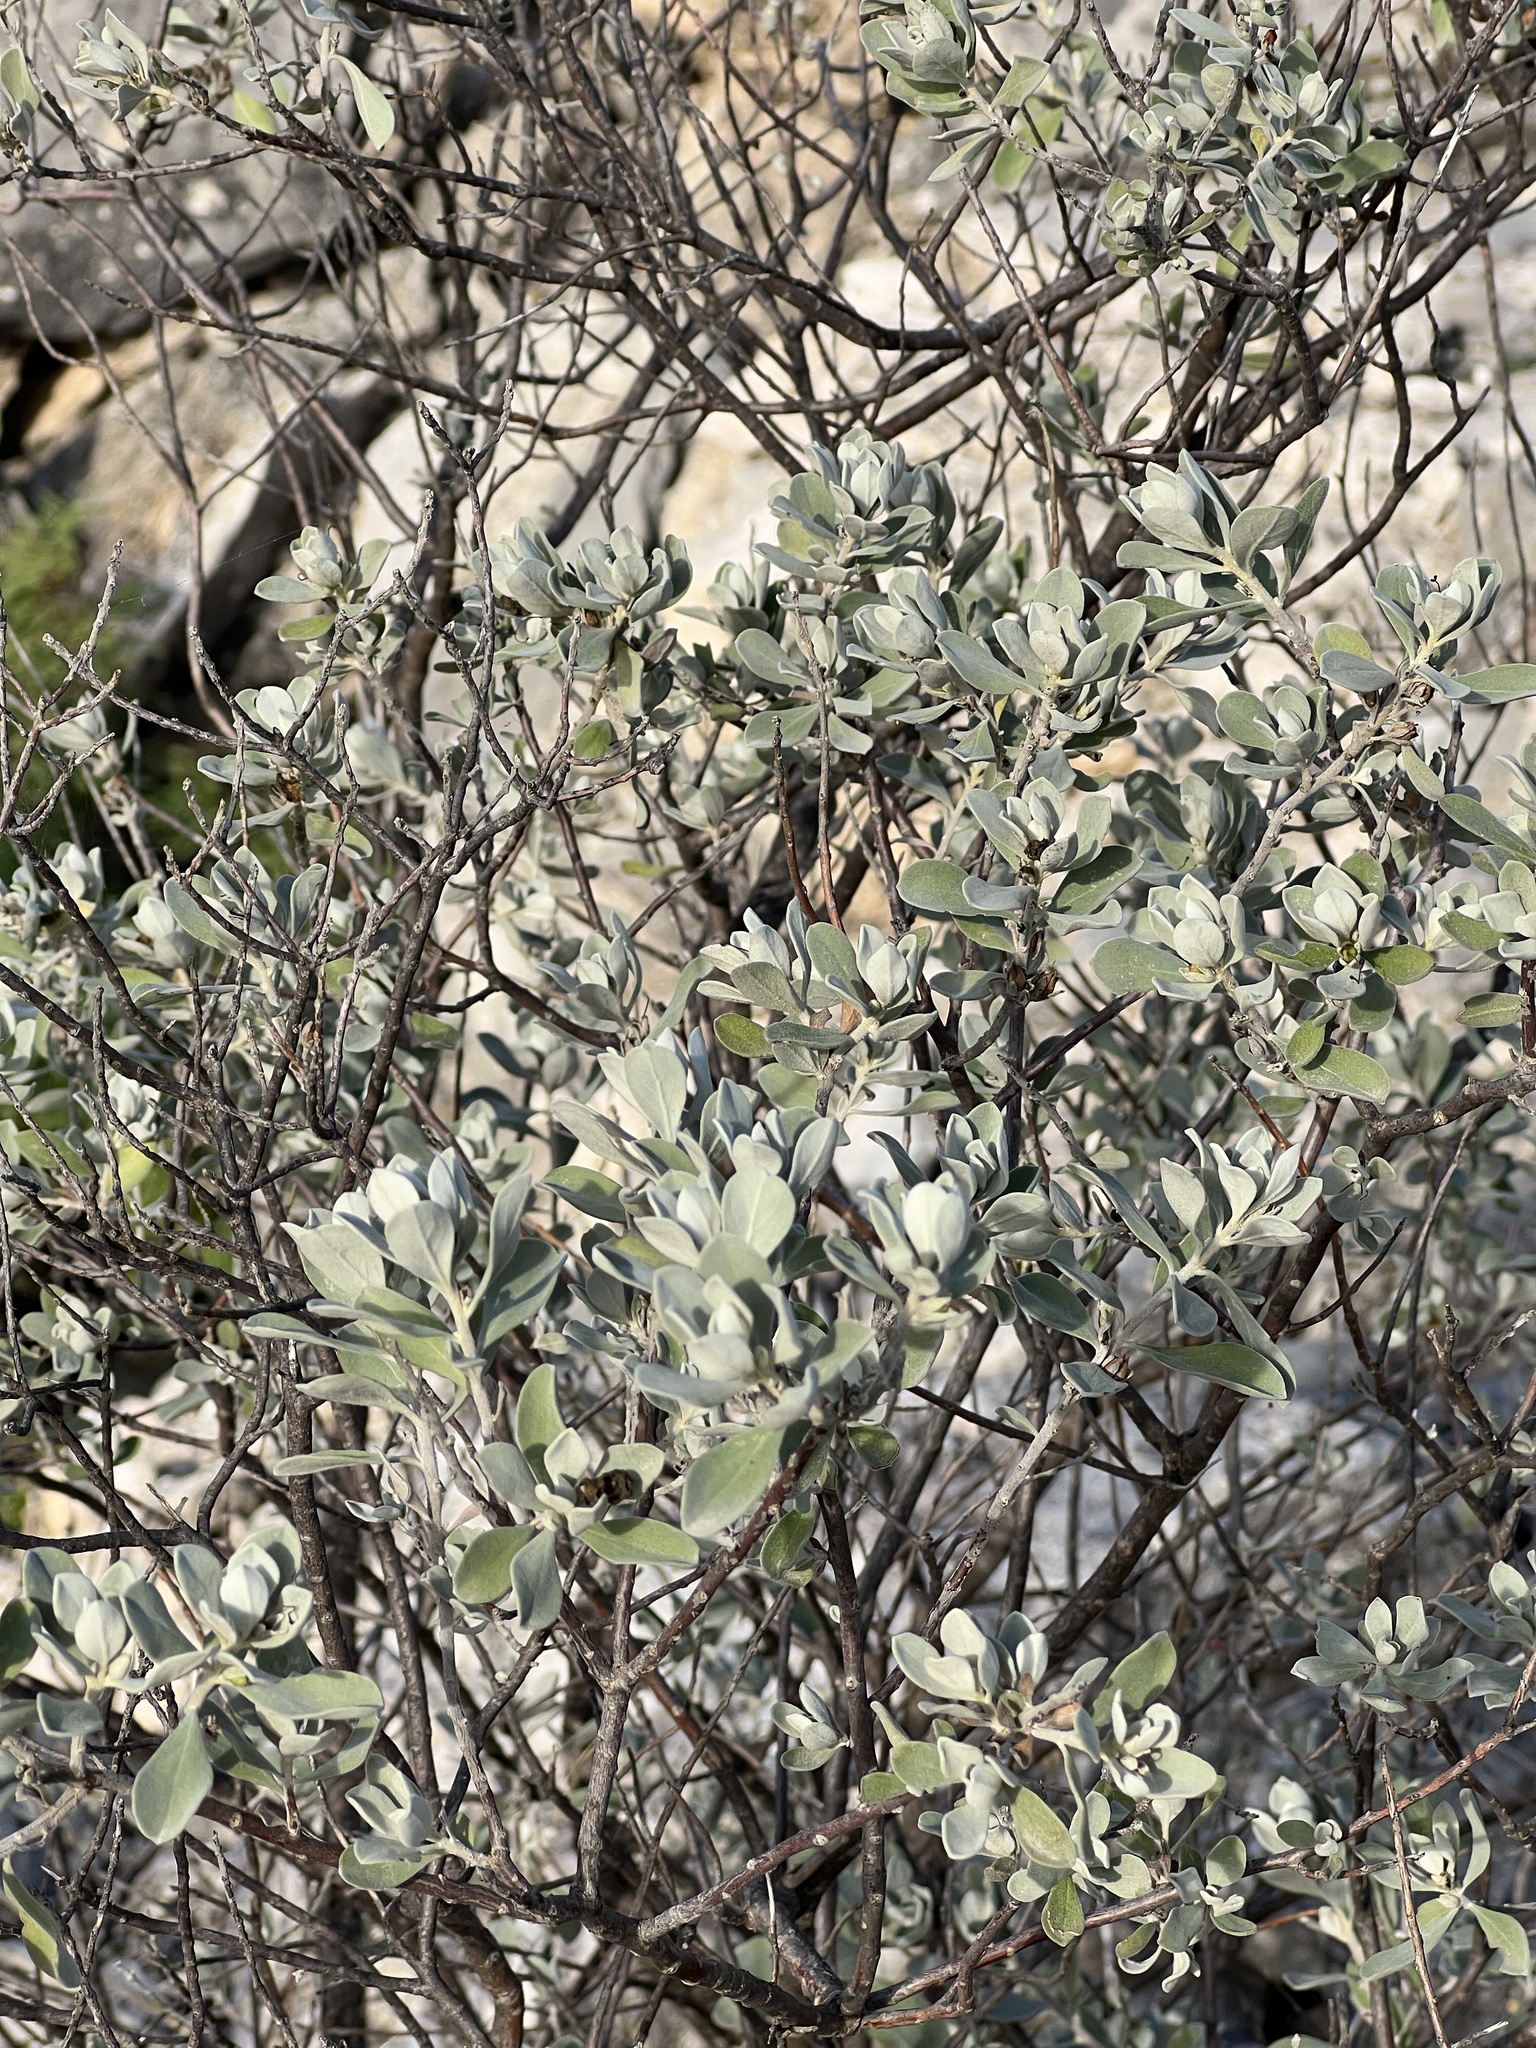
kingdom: Plantae
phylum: Tracheophyta
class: Magnoliopsida
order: Lamiales
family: Scrophulariaceae
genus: Leucophyllum
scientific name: Leucophyllum frutescens
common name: Texas silverleaf
